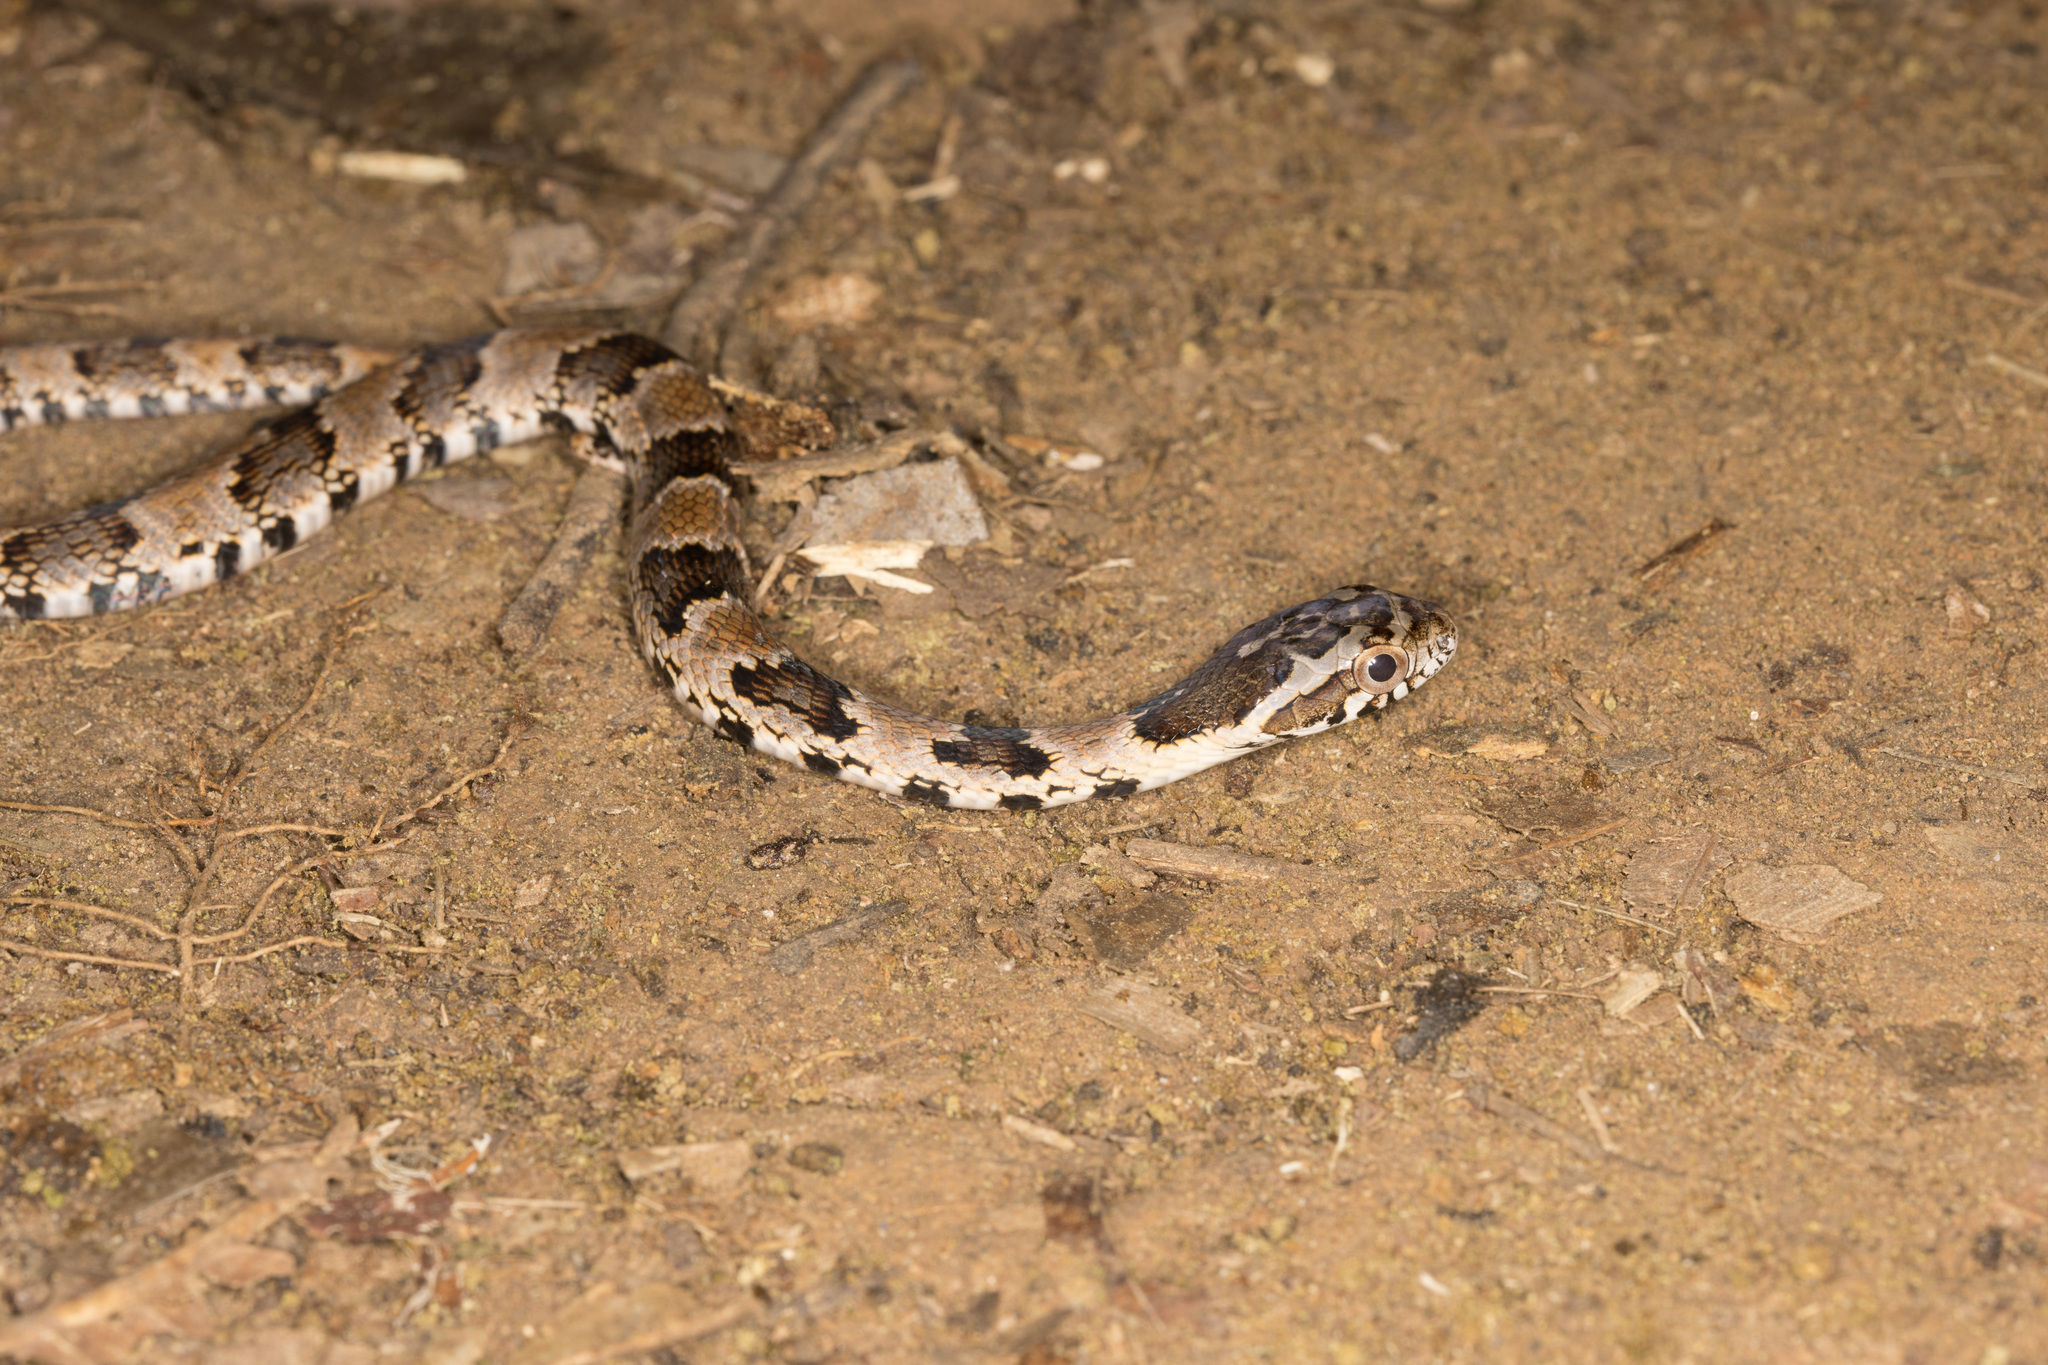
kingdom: Animalia
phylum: Chordata
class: Squamata
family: Colubridae
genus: Xenodon
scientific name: Xenodon rabdocephalus
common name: False fer-de-lance
